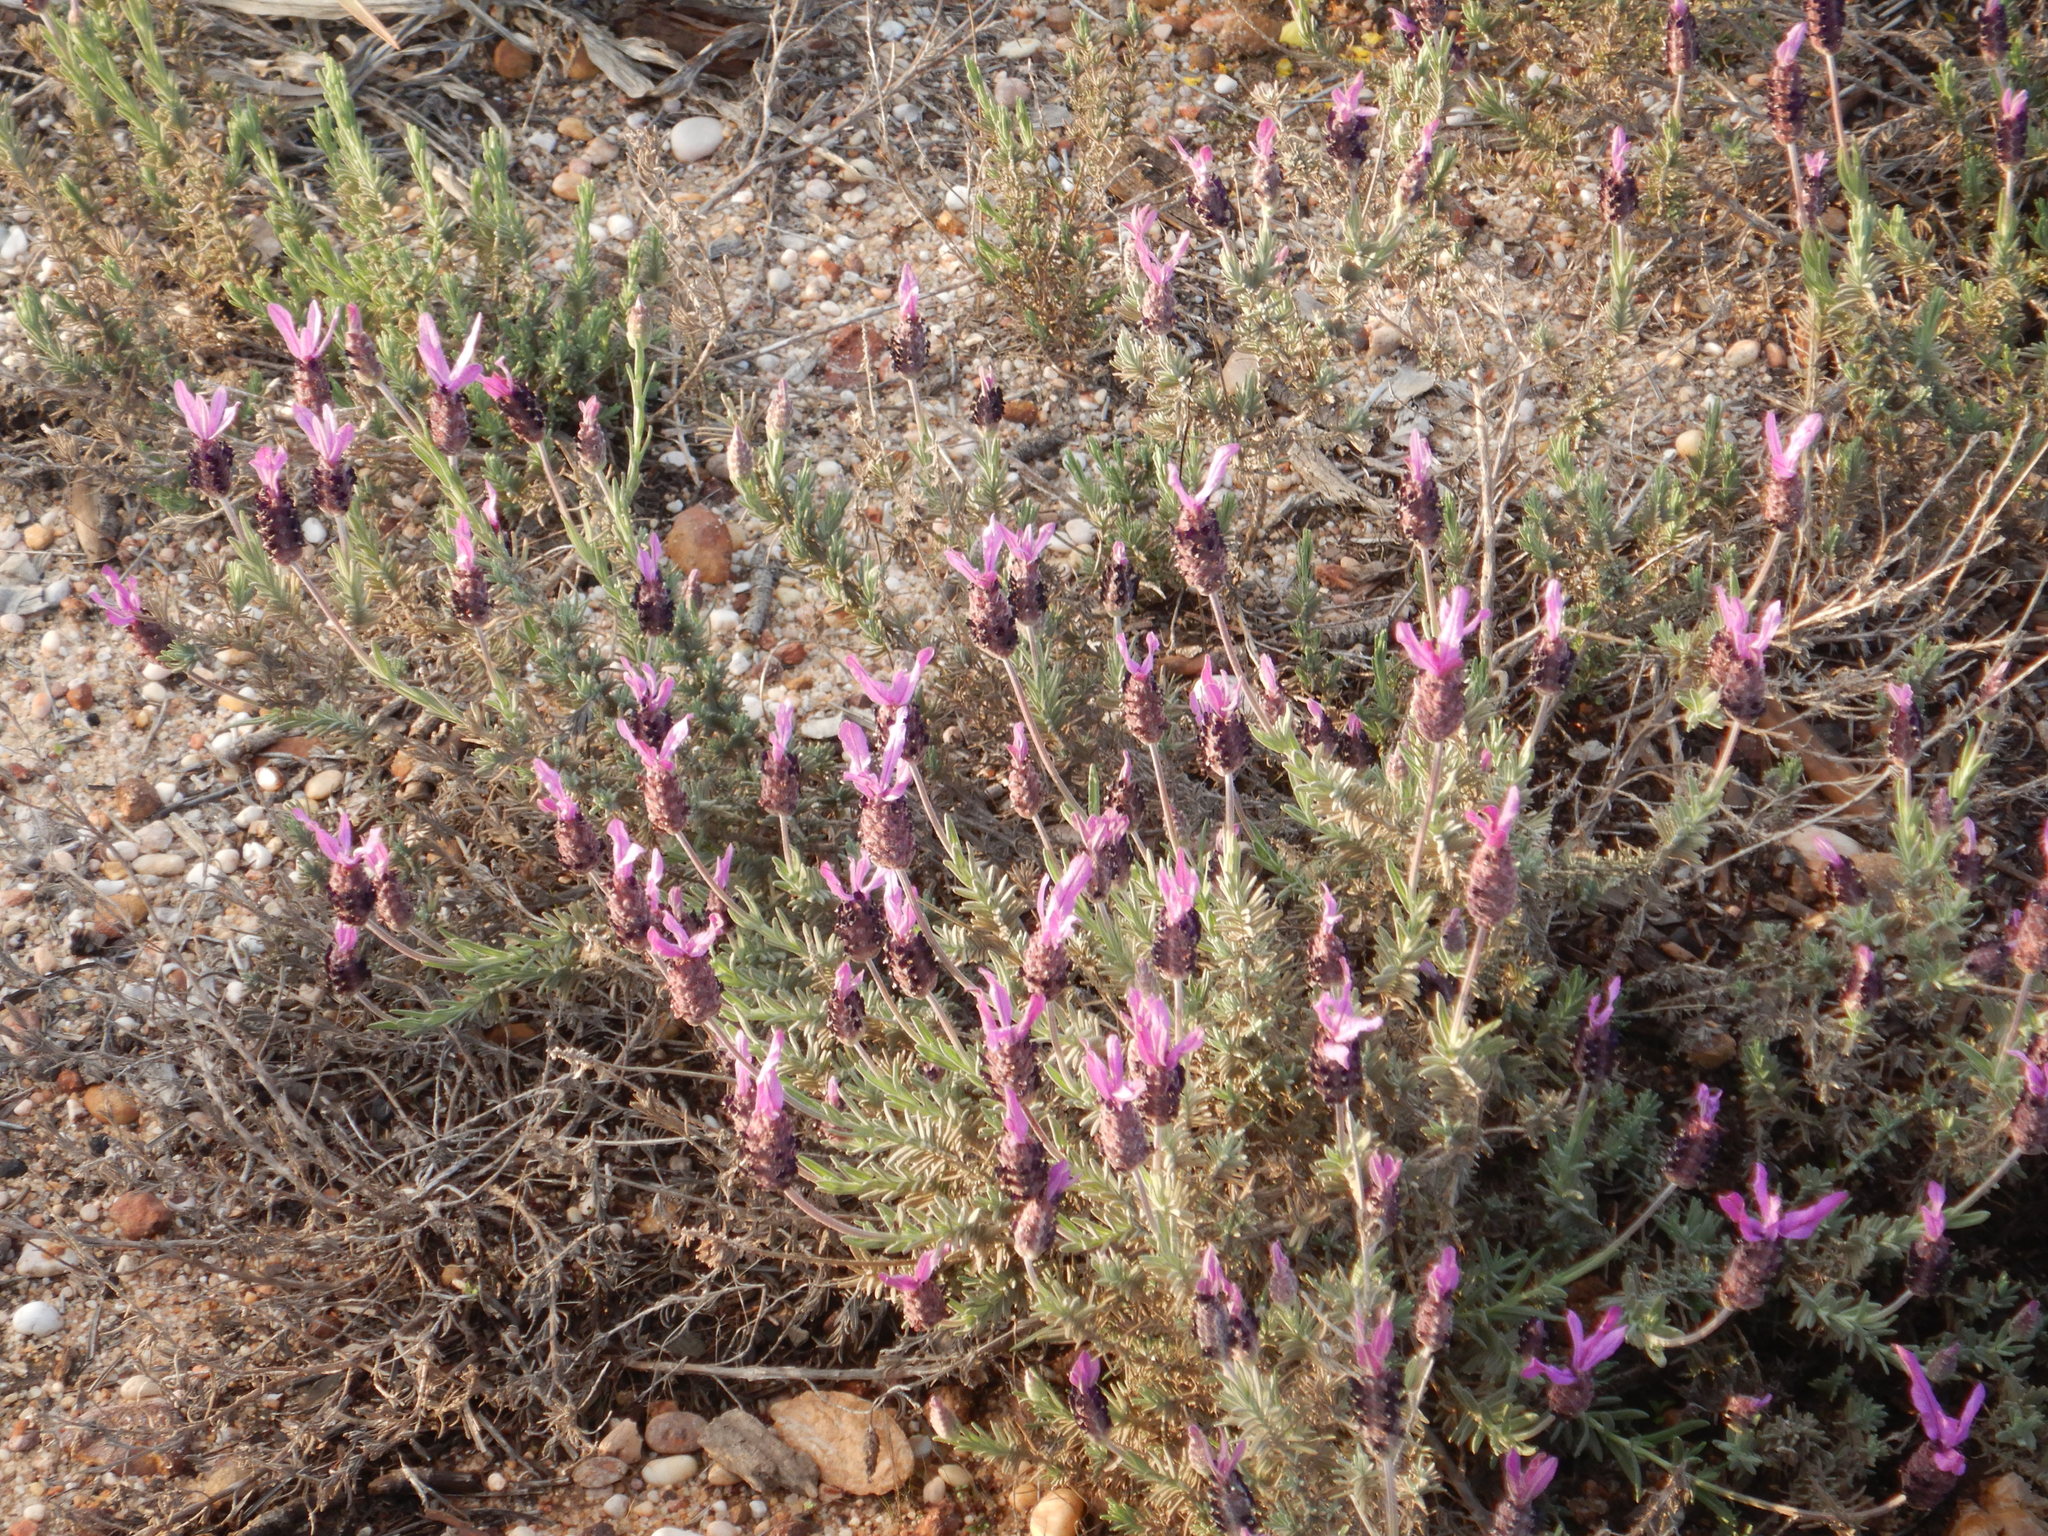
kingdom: Plantae
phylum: Tracheophyta
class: Magnoliopsida
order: Lamiales
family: Lamiaceae
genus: Lavandula
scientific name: Lavandula pedunculata
